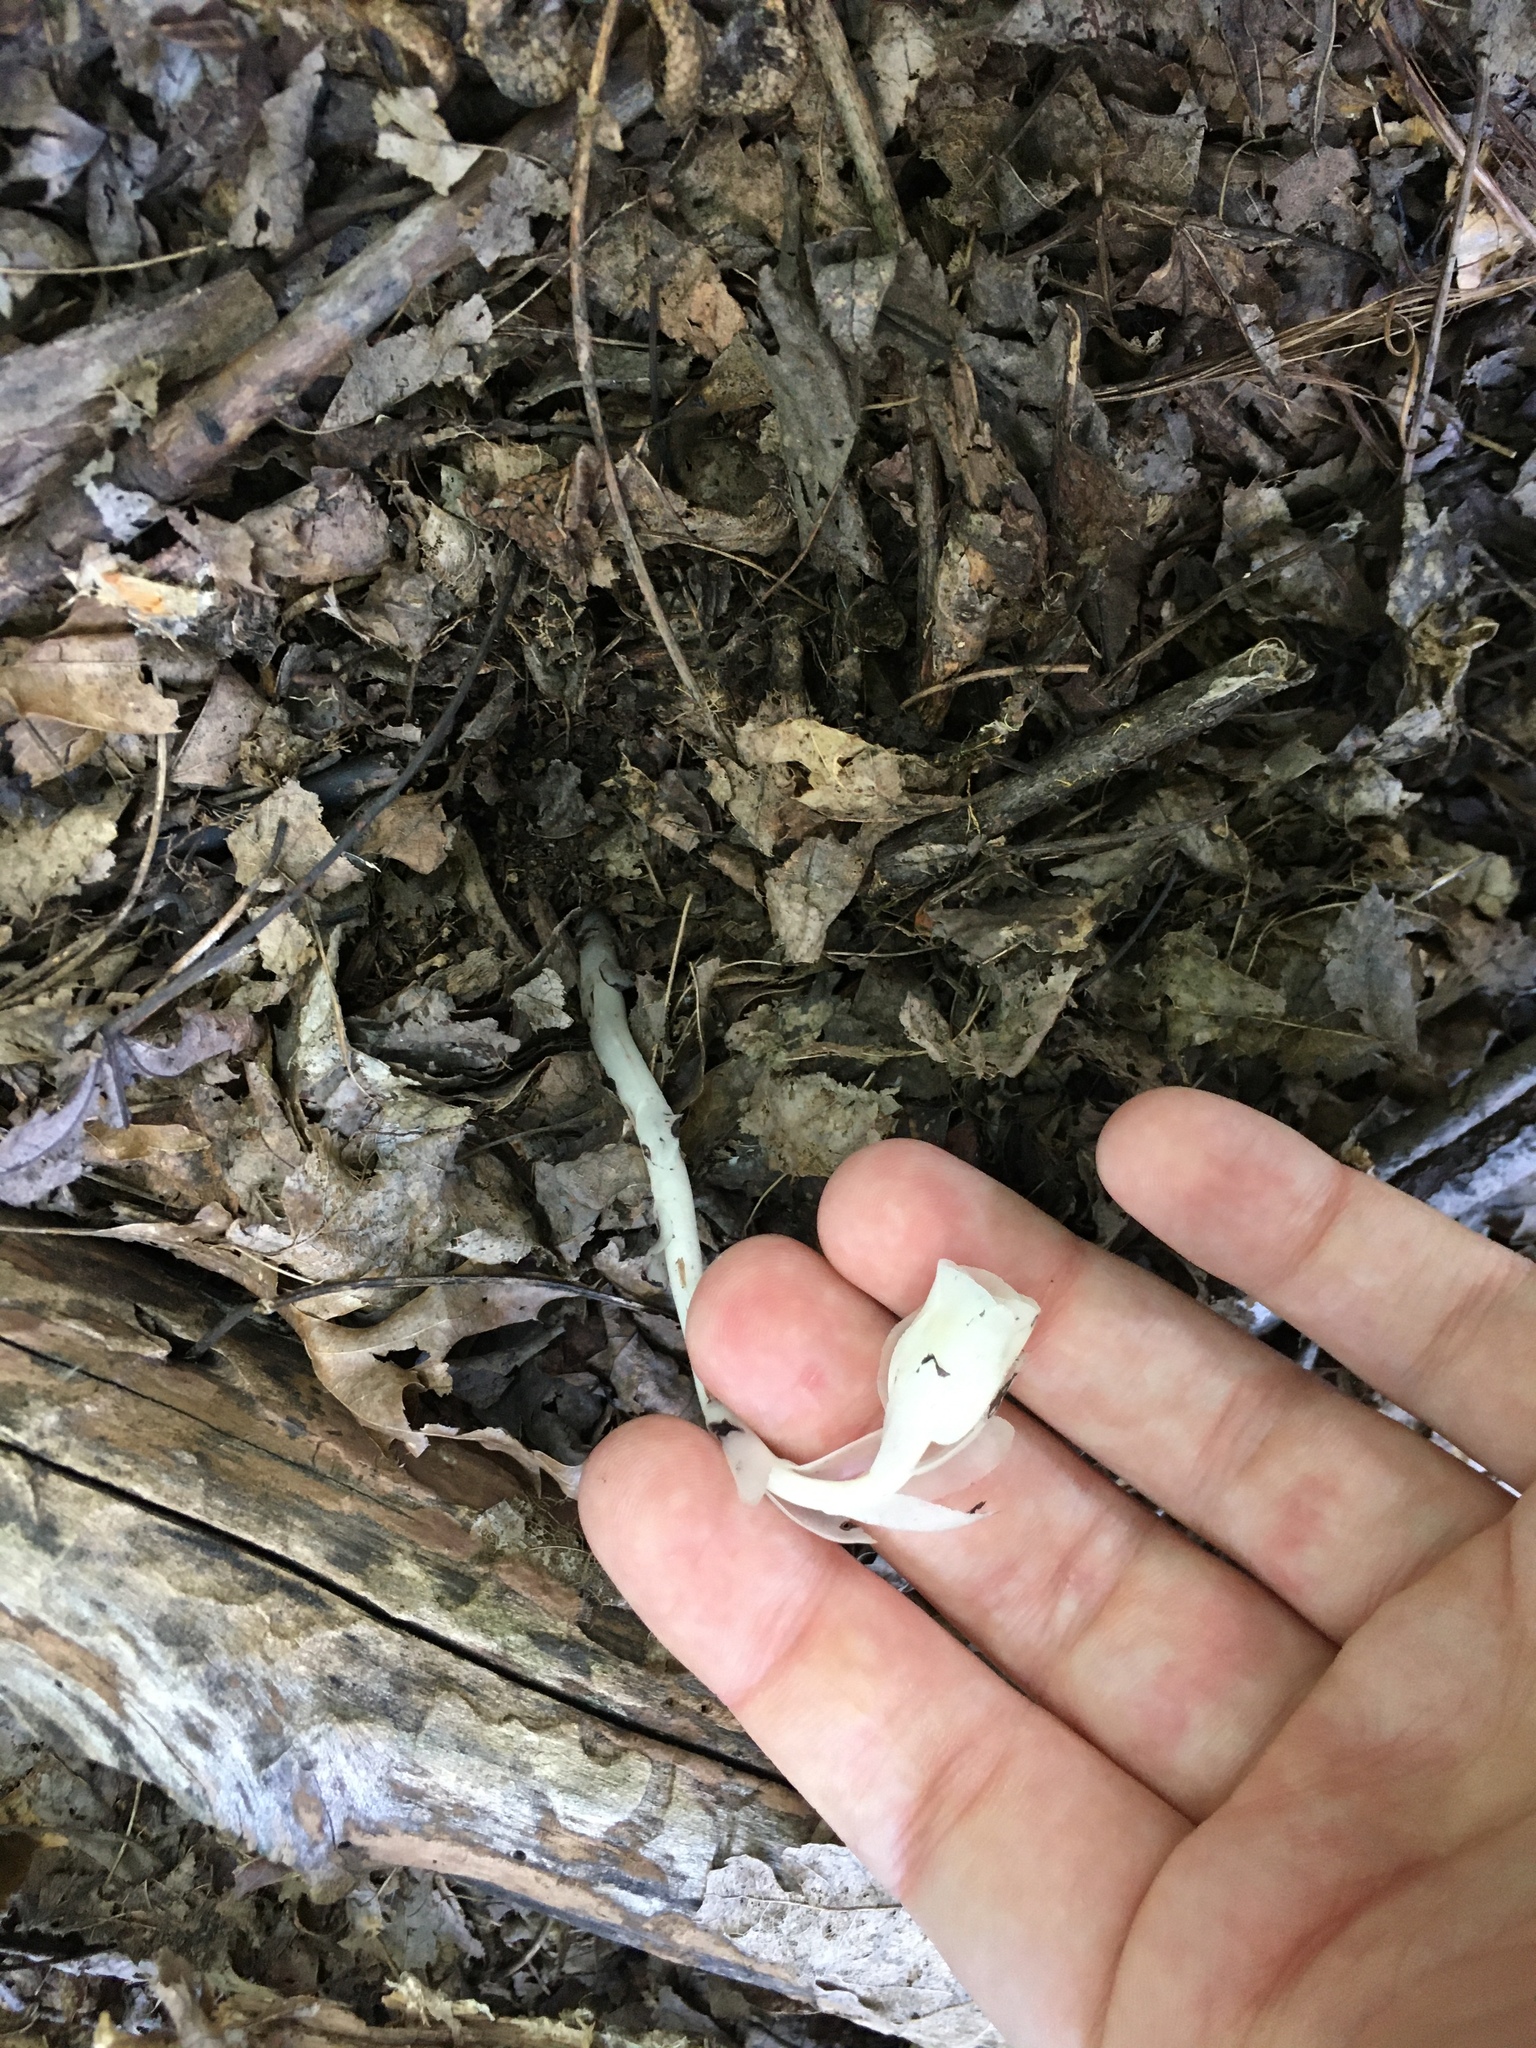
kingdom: Plantae
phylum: Tracheophyta
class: Magnoliopsida
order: Ericales
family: Ericaceae
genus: Monotropa
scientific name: Monotropa uniflora
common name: Convulsion root
